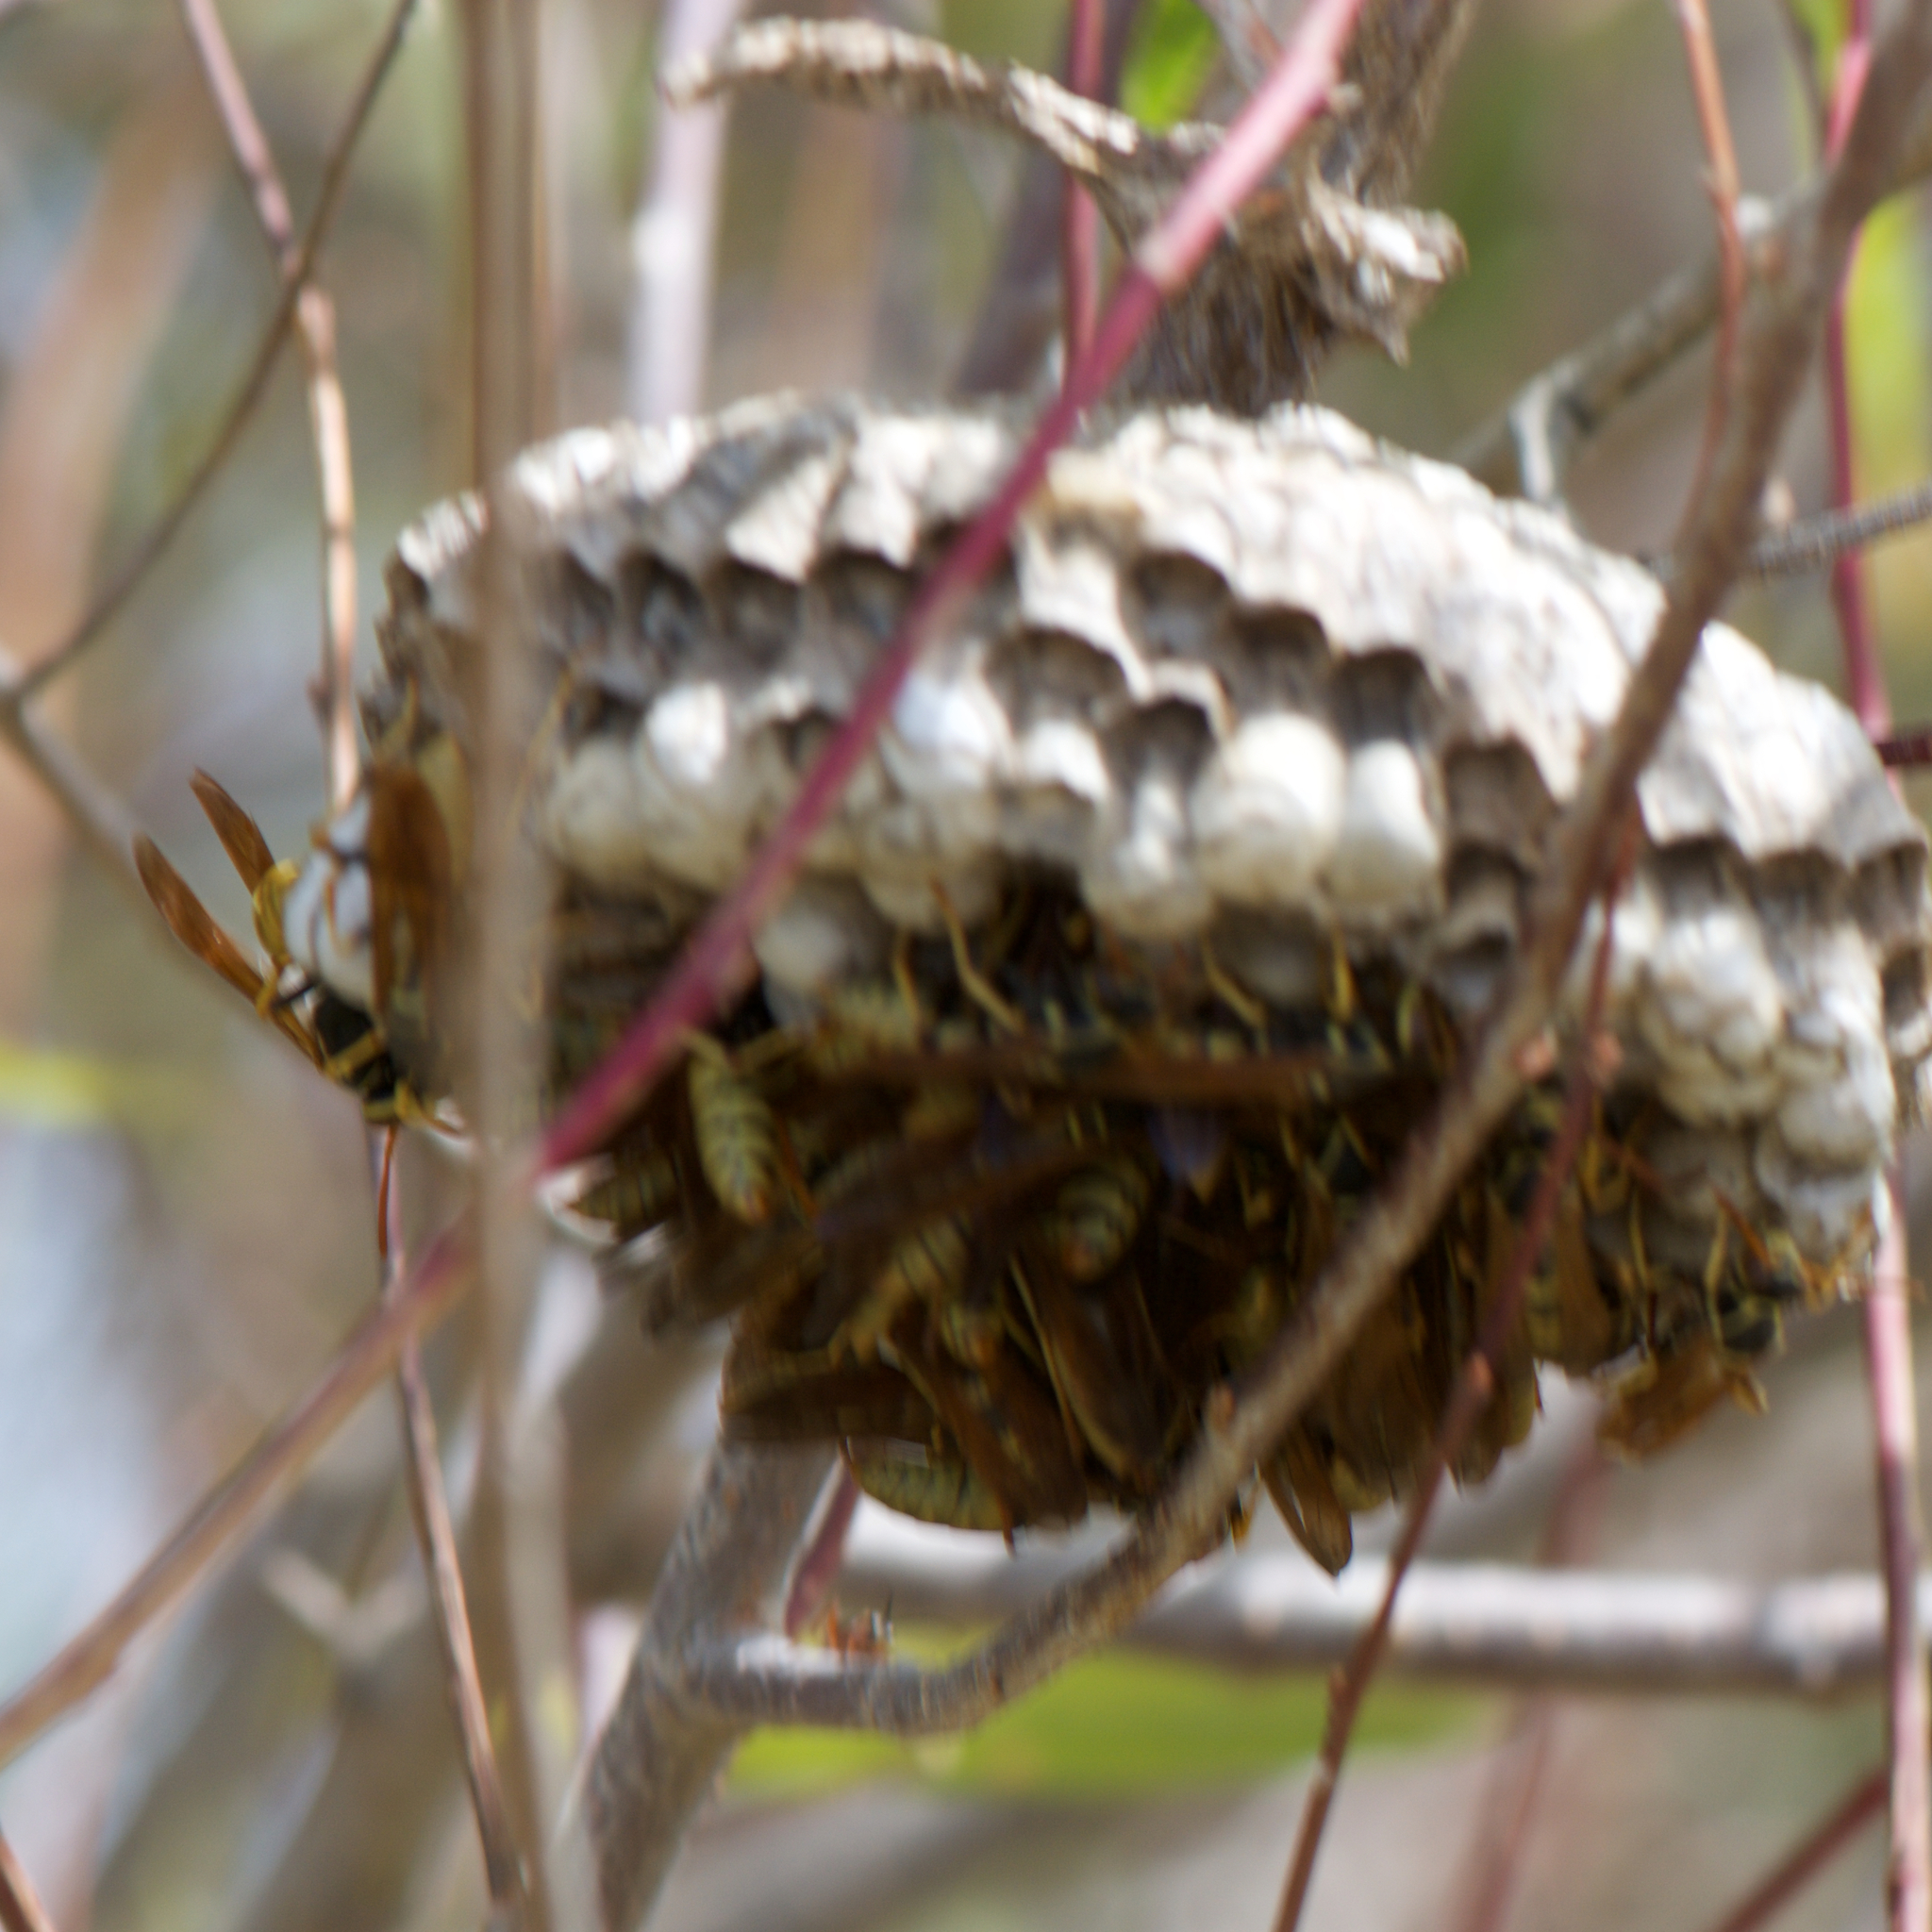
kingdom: Animalia
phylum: Arthropoda
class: Insecta
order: Hymenoptera
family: Eumenidae
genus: Polistes
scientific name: Polistes aurifer
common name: Paper wasp
